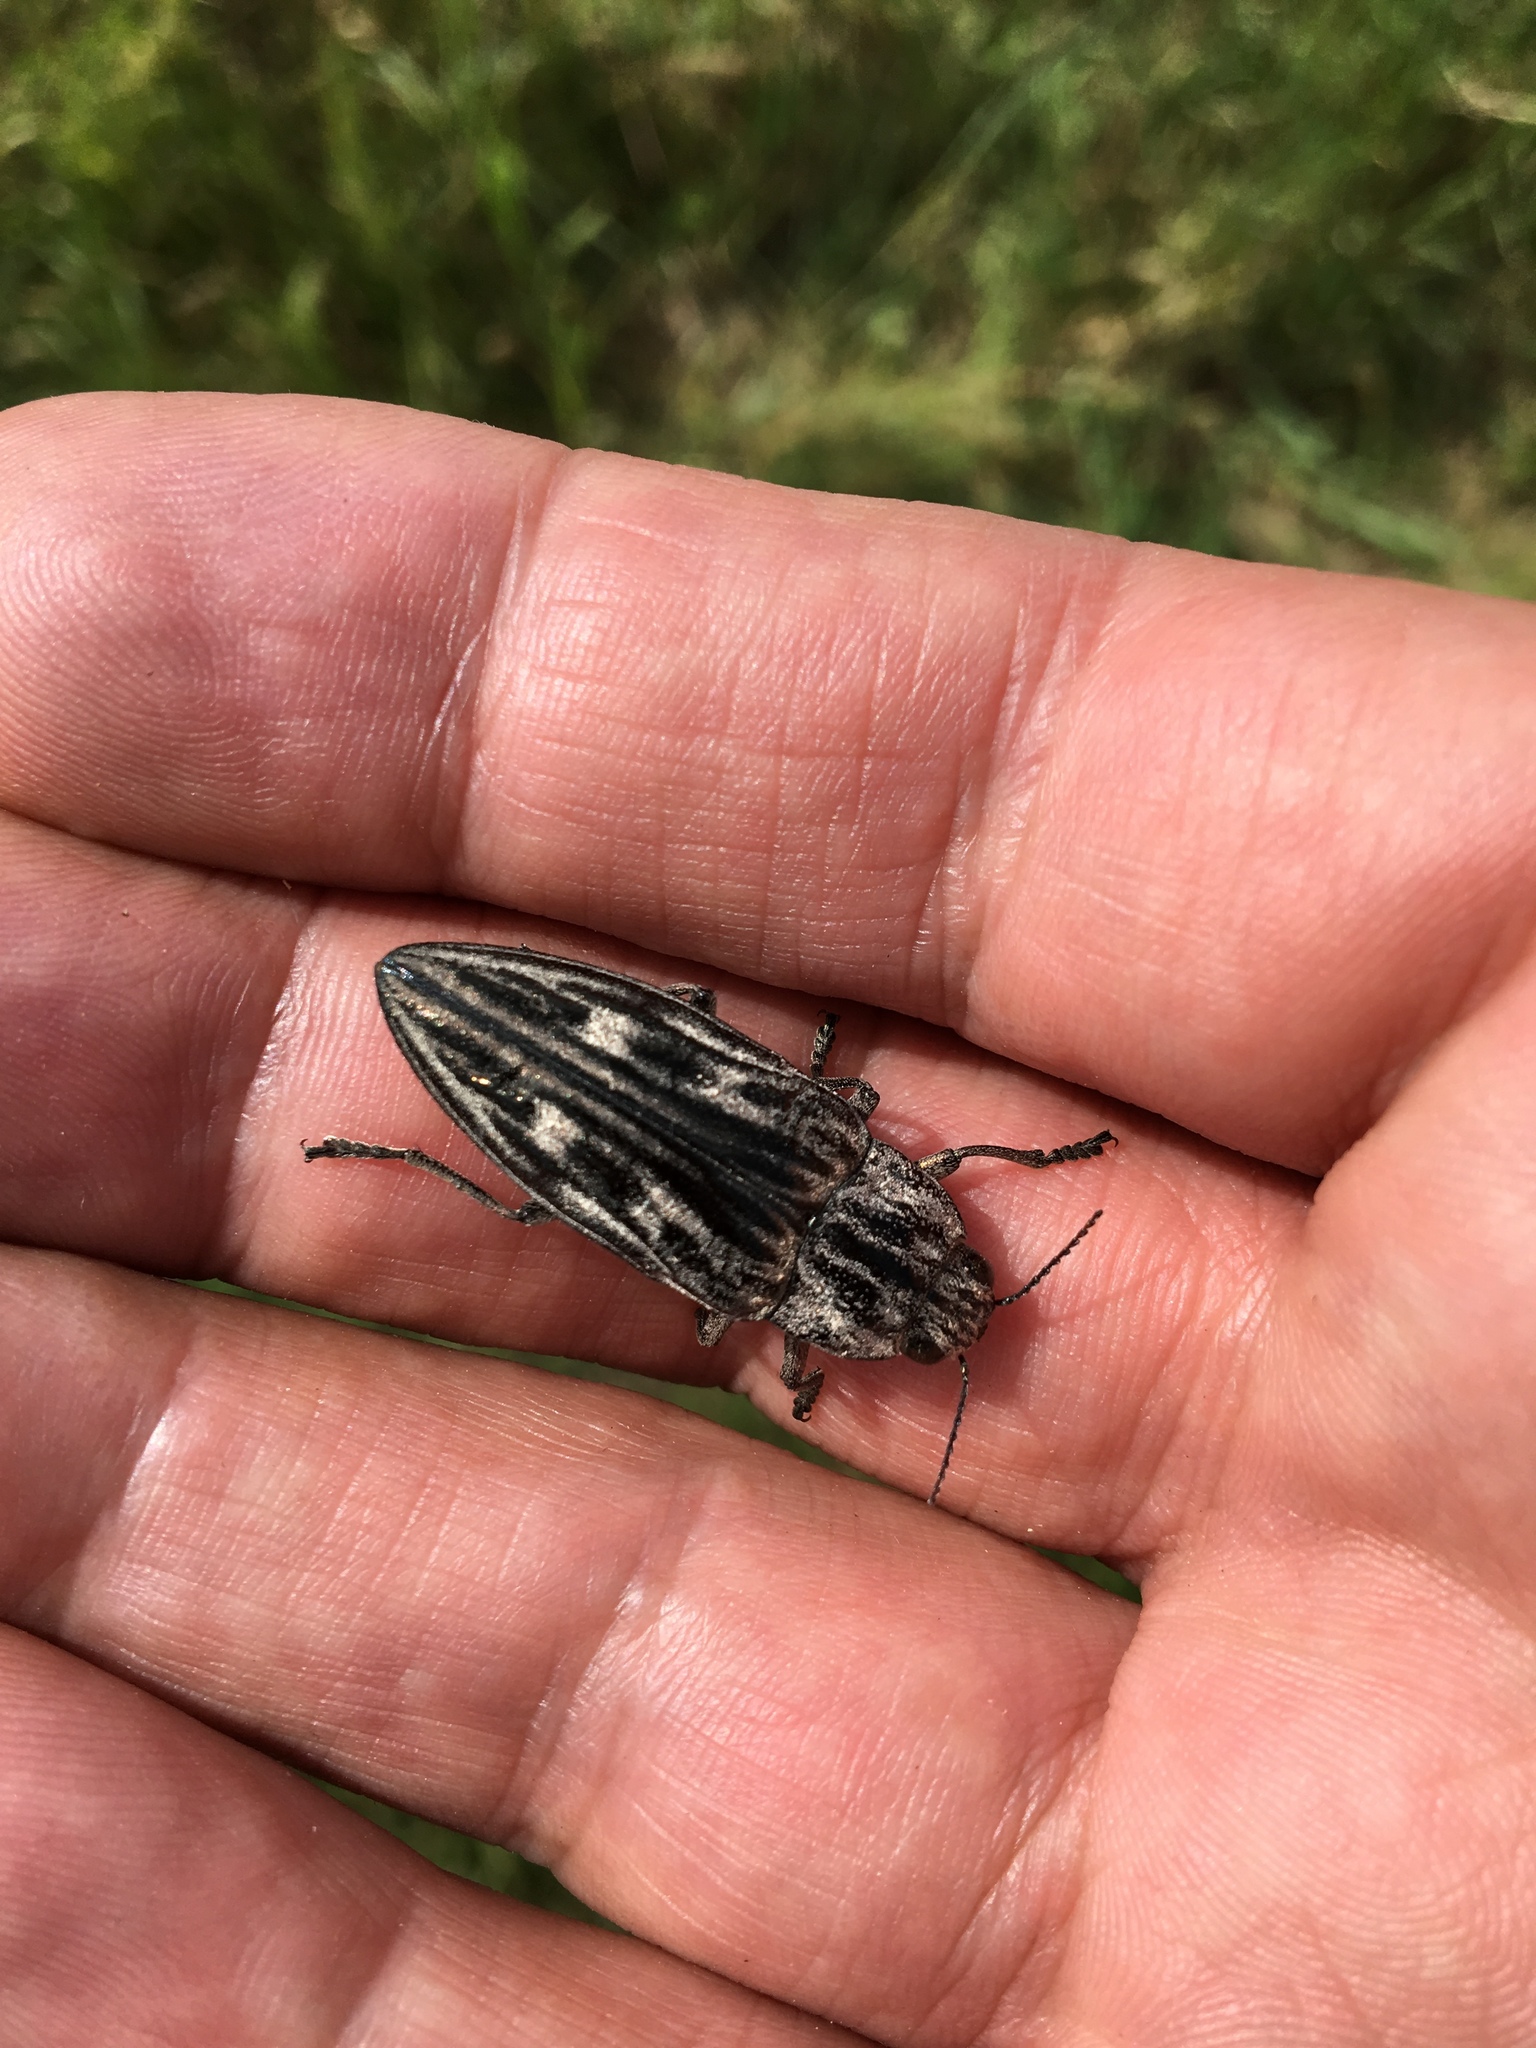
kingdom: Animalia
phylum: Arthropoda
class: Insecta
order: Coleoptera
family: Buprestidae
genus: Chalcophora
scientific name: Chalcophora mariana
